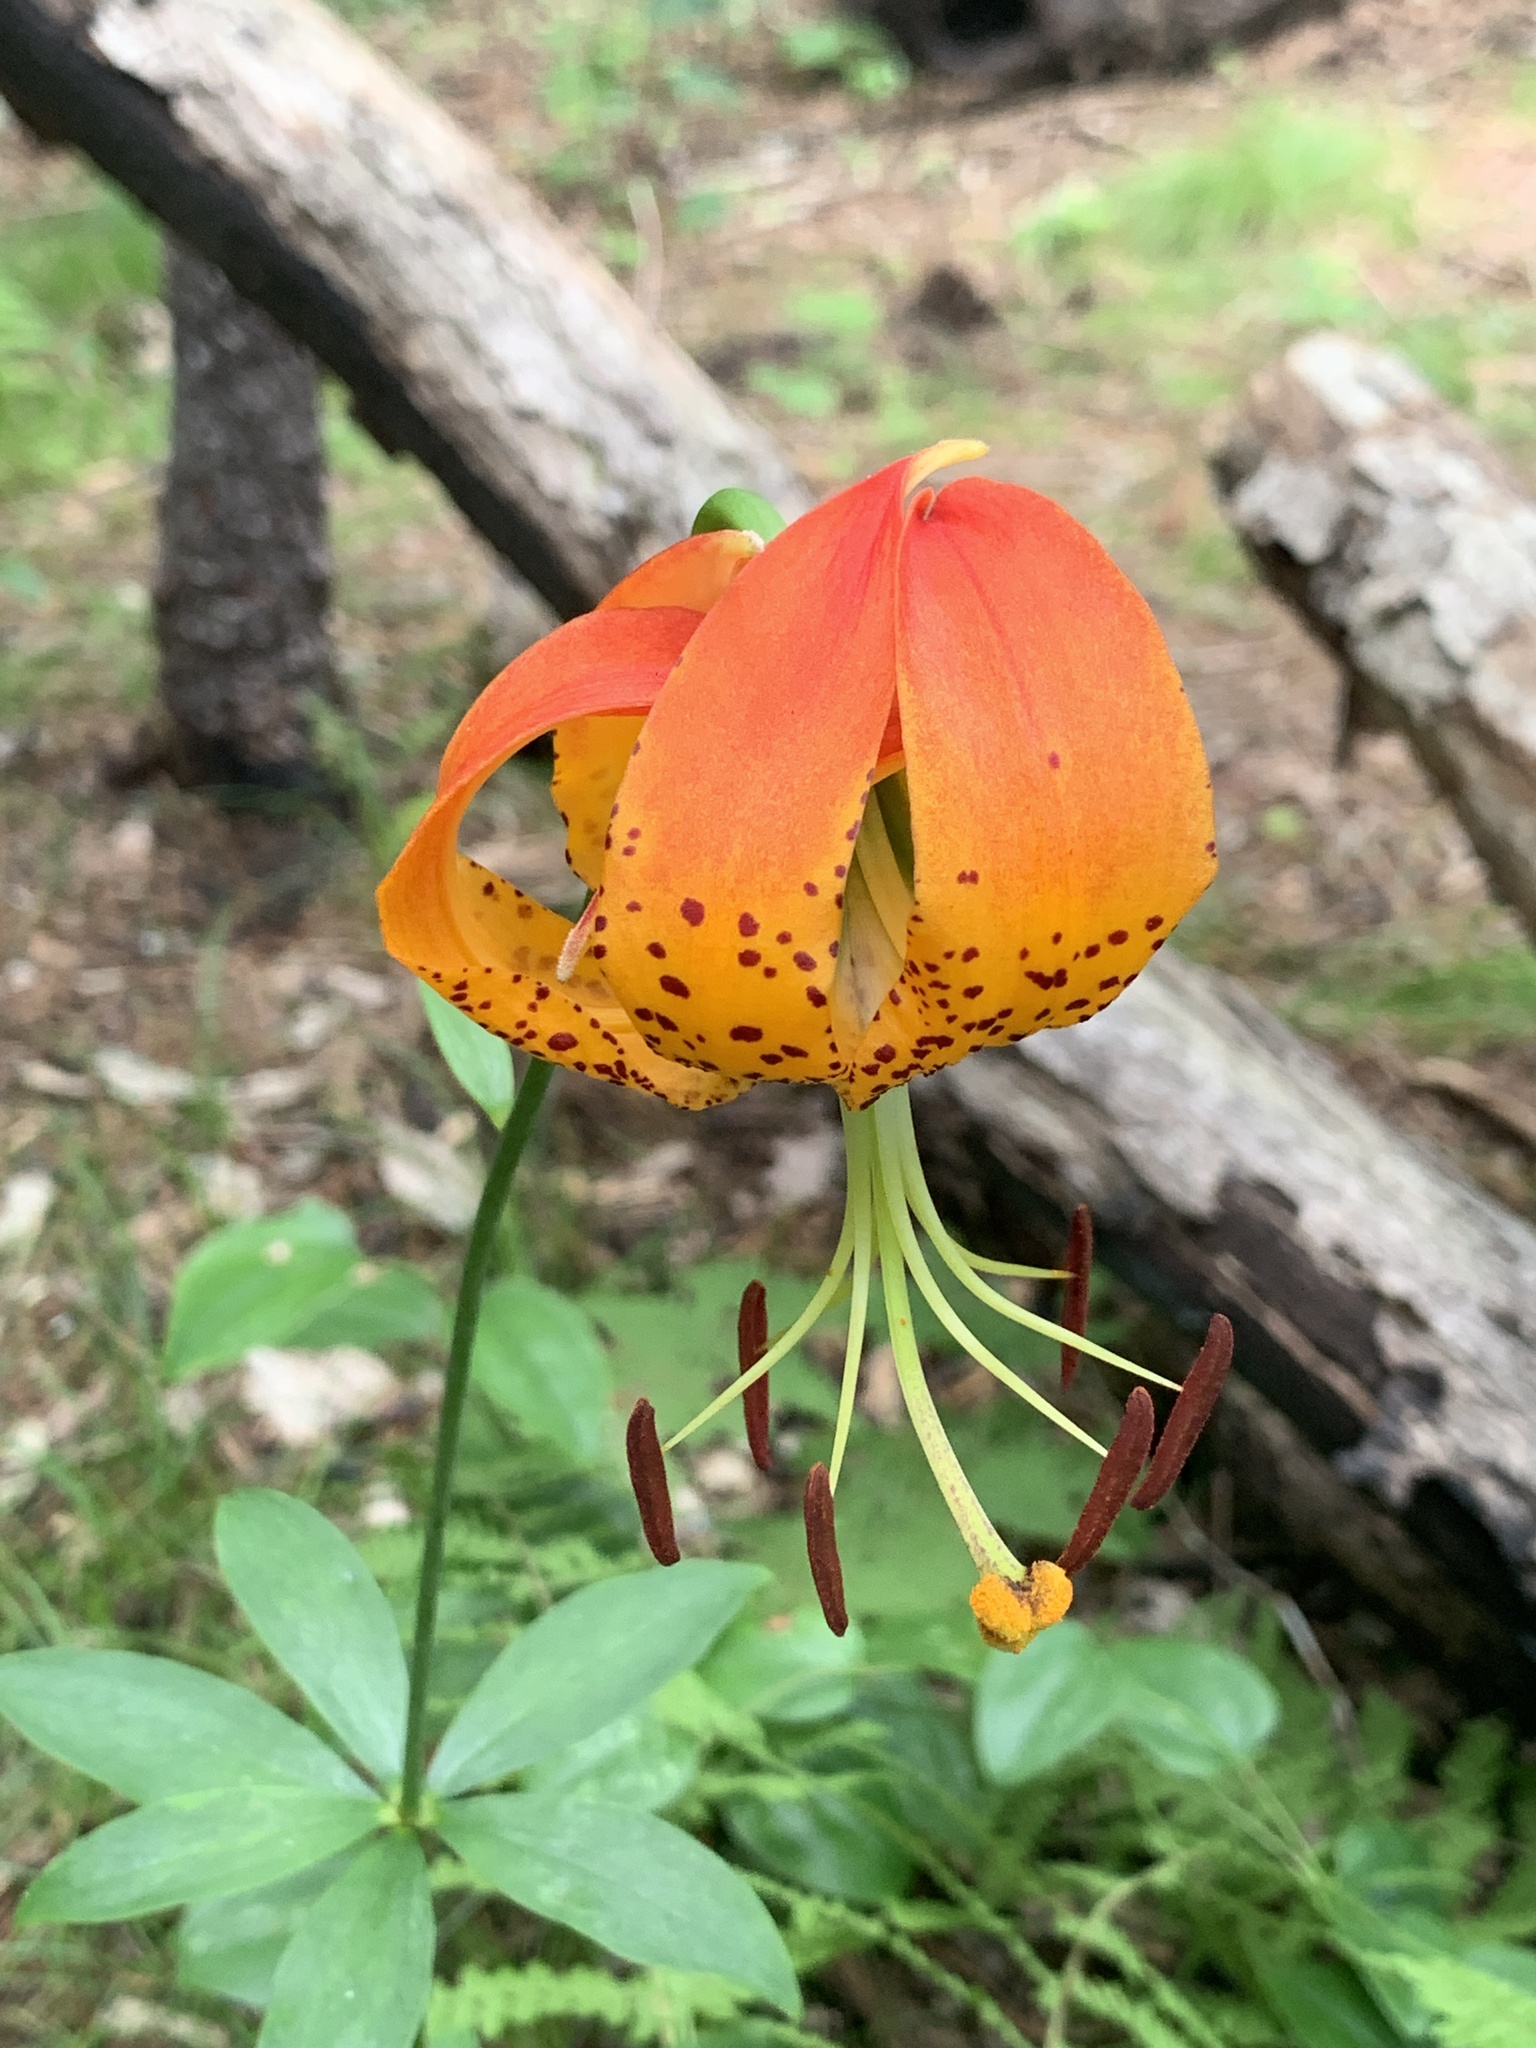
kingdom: Plantae
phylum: Tracheophyta
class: Liliopsida
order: Liliales
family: Liliaceae
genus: Lilium
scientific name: Lilium michauxii
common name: Carolina lily
